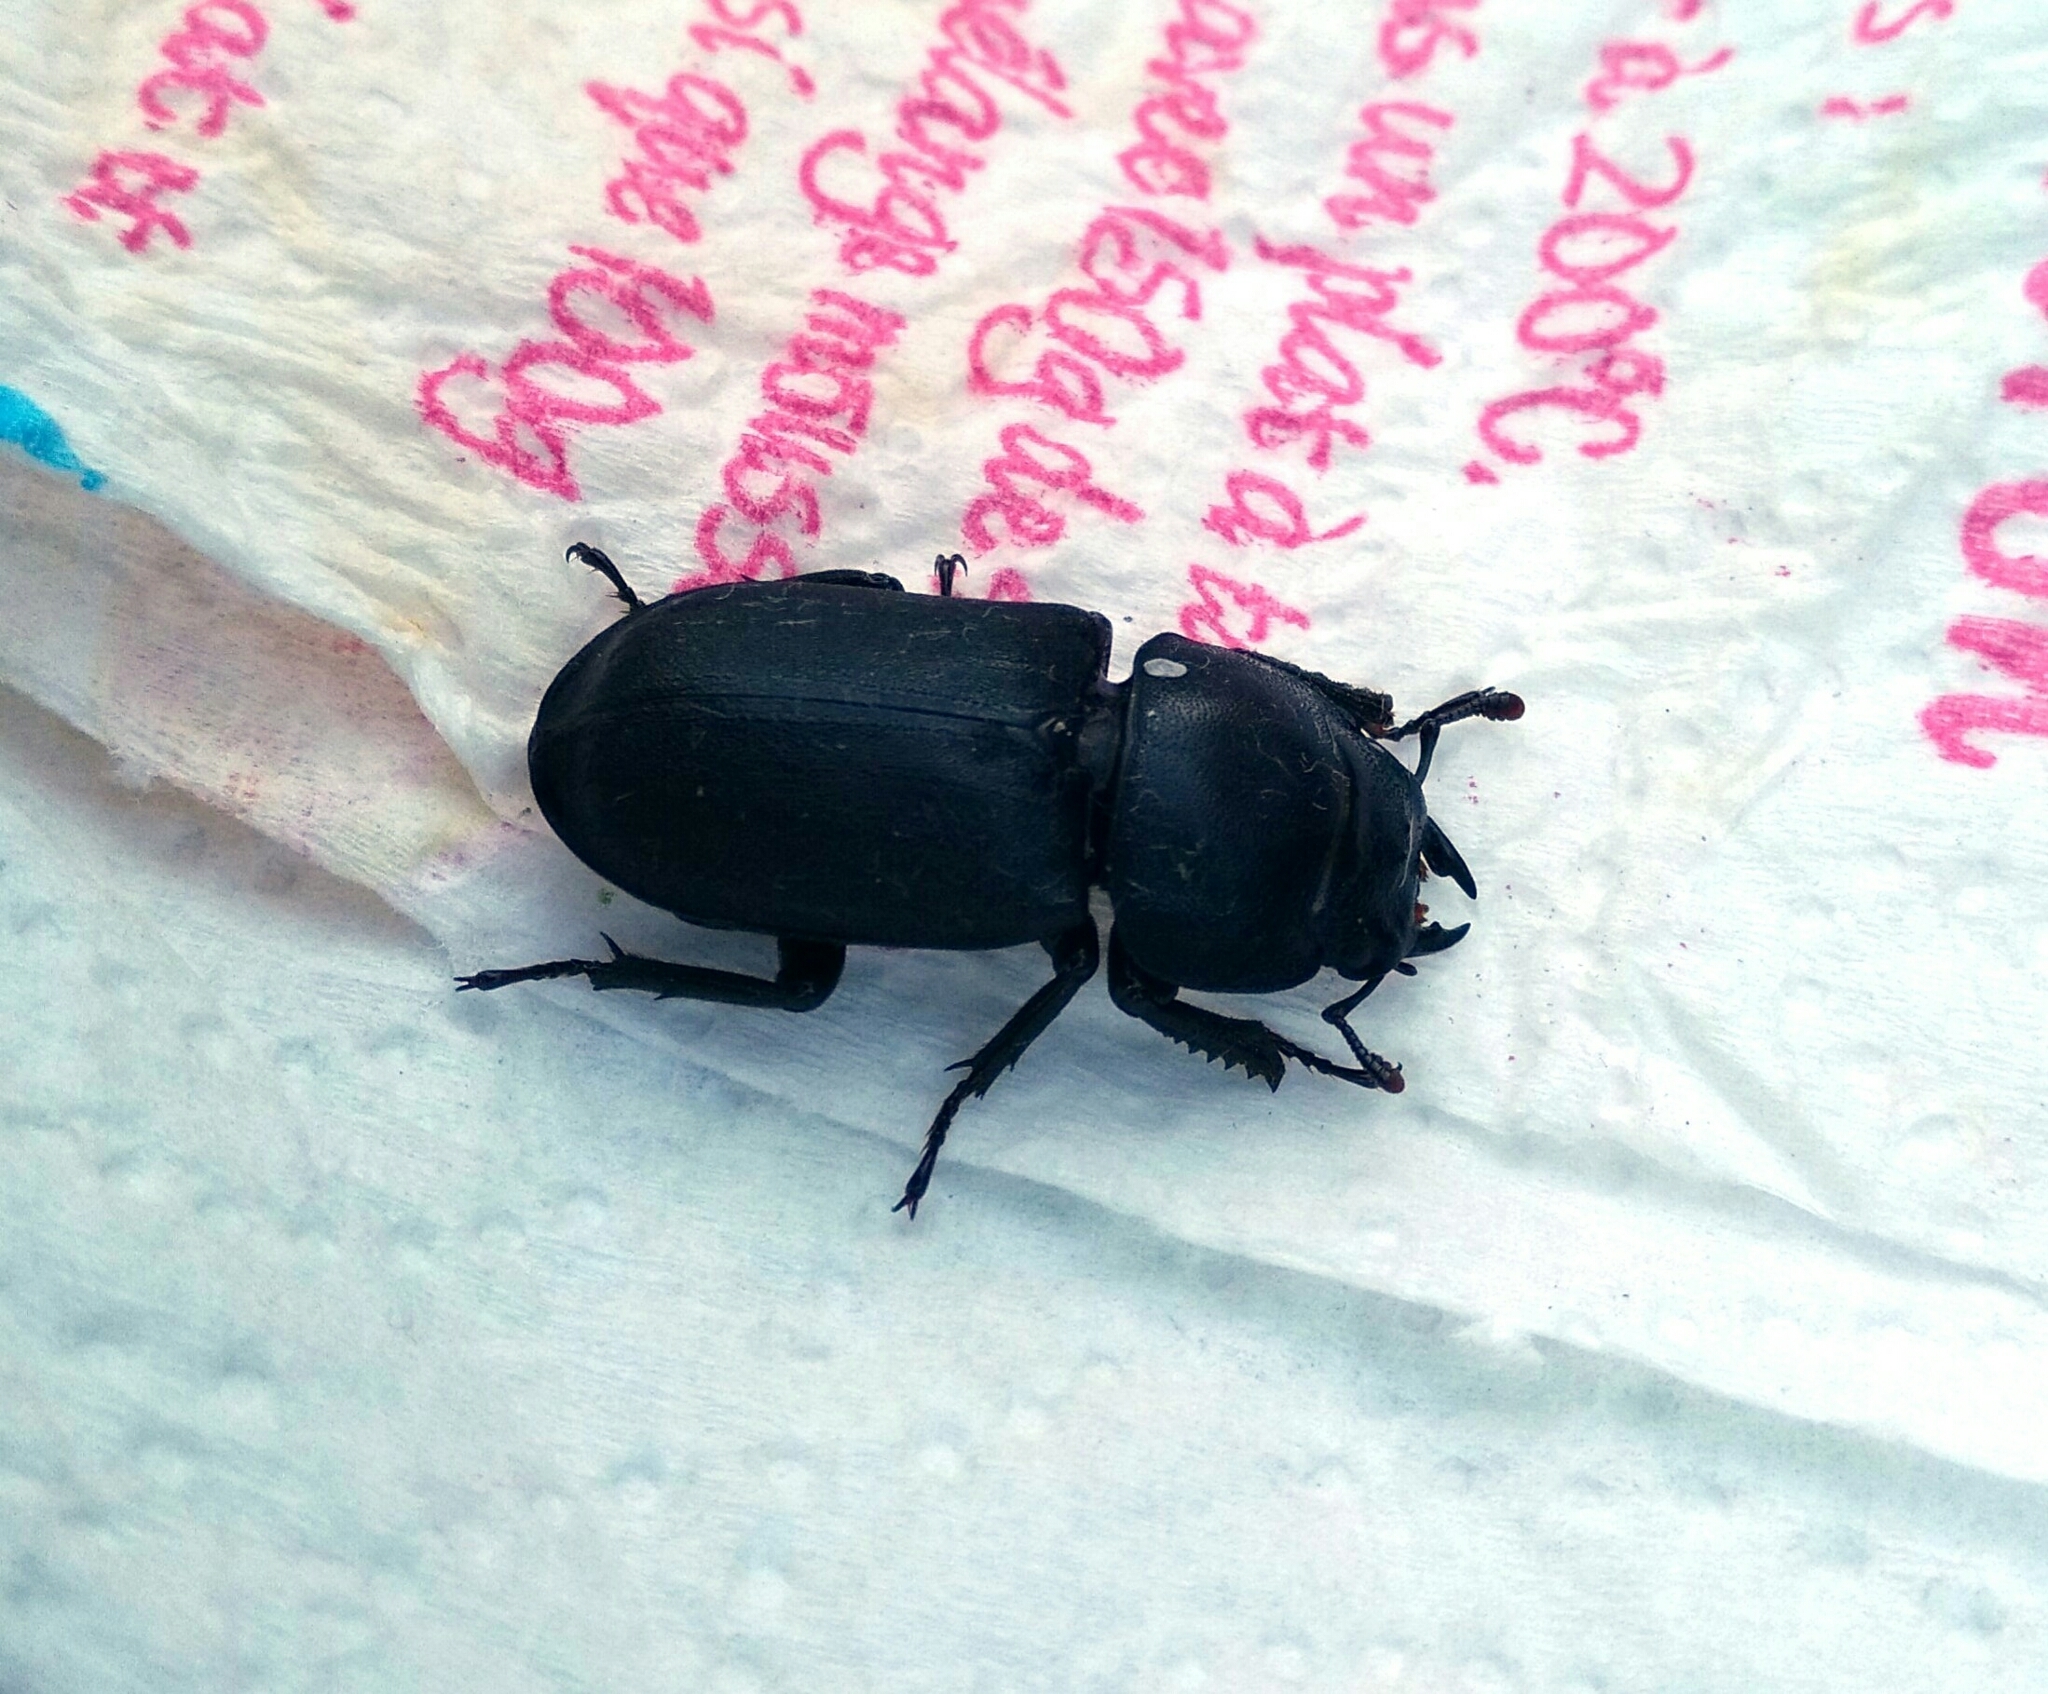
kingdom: Animalia
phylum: Arthropoda
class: Insecta
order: Coleoptera
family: Lucanidae
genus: Dorcus
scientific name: Dorcus parallelipipedus
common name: Lesser stag beetle
